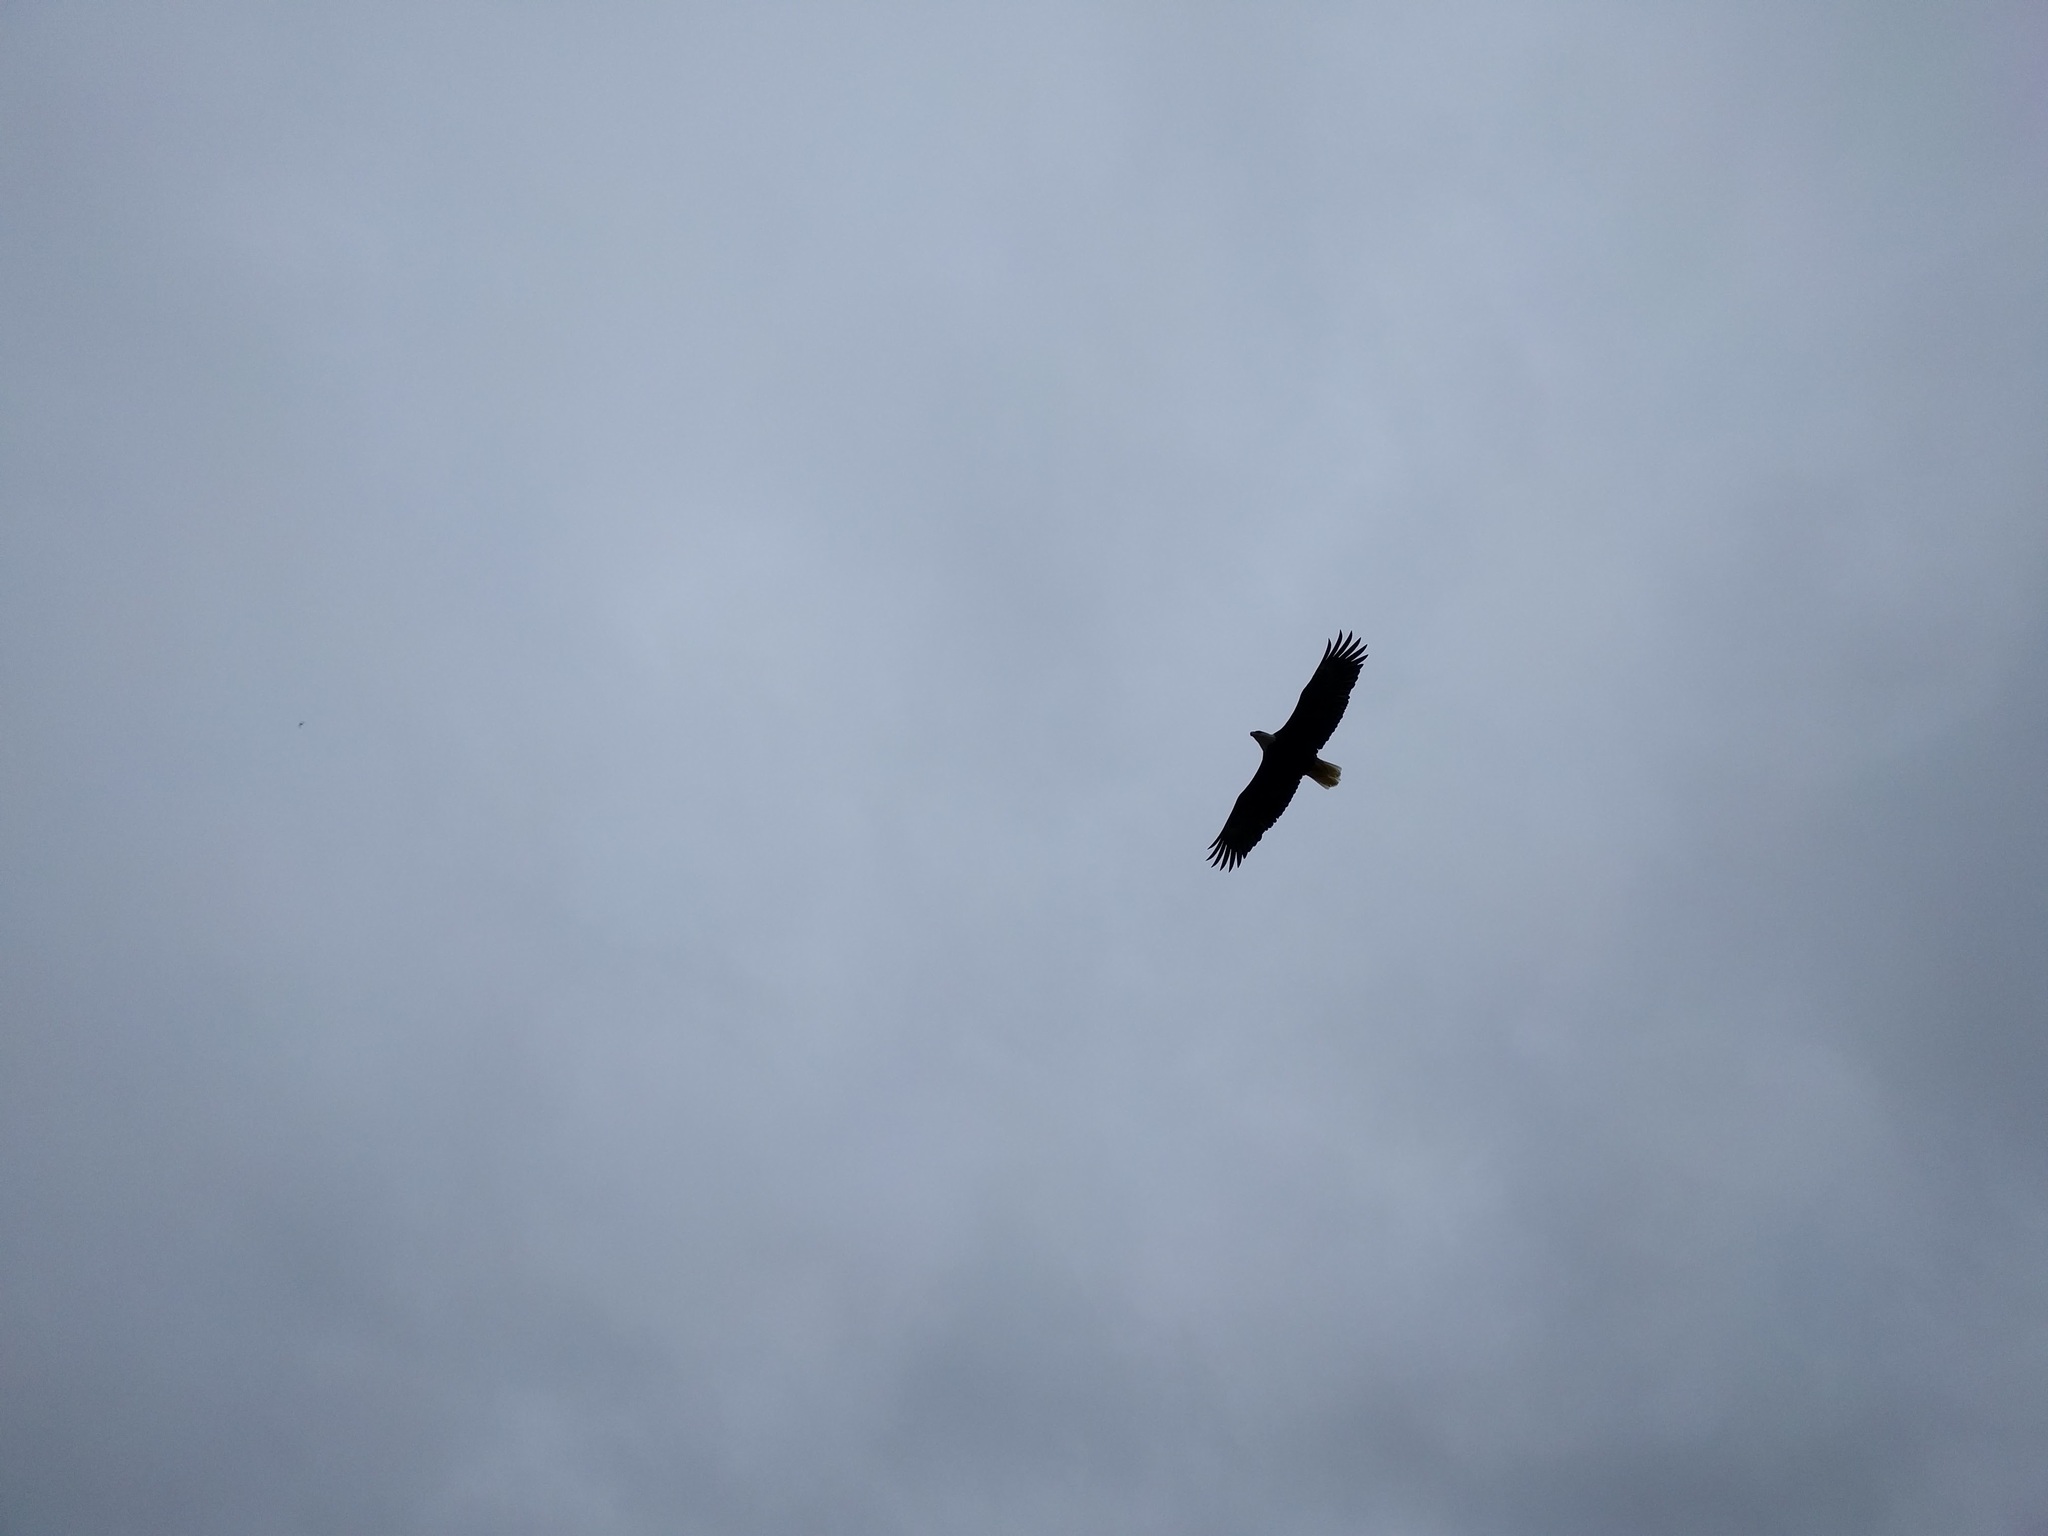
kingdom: Animalia
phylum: Chordata
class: Aves
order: Accipitriformes
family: Accipitridae
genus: Haliaeetus
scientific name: Haliaeetus leucocephalus
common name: Bald eagle
